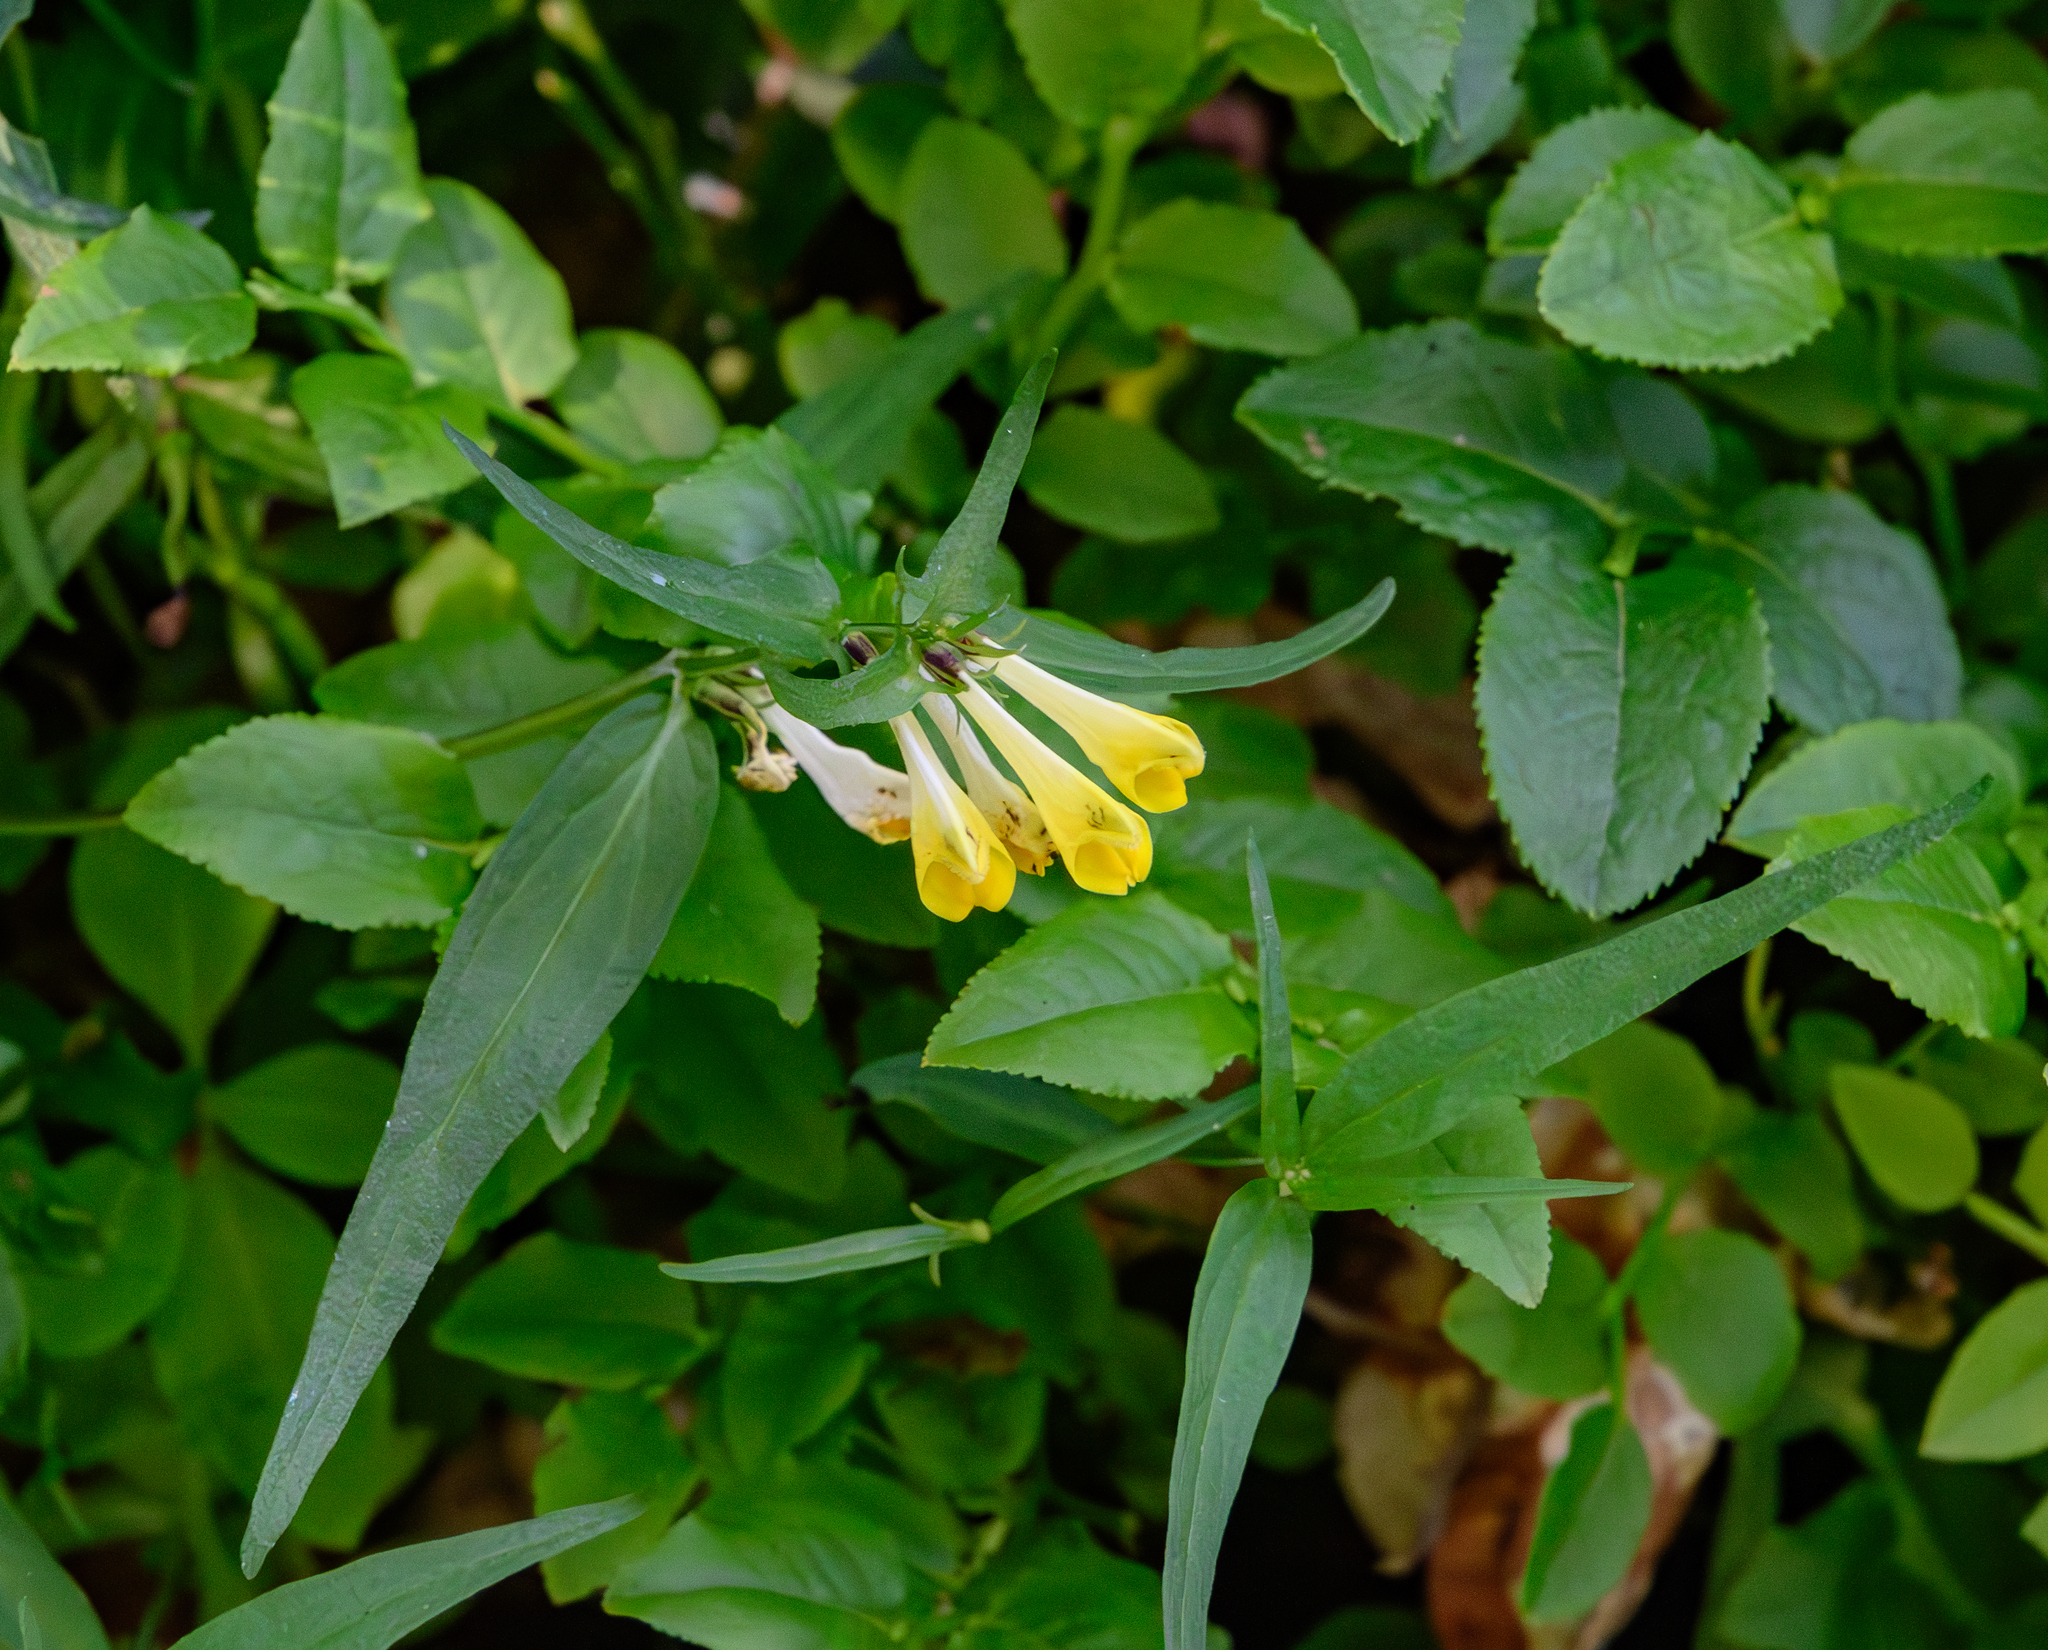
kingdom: Plantae
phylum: Tracheophyta
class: Magnoliopsida
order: Lamiales
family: Orobanchaceae
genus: Melampyrum
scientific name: Melampyrum pratense
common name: Common cow-wheat
